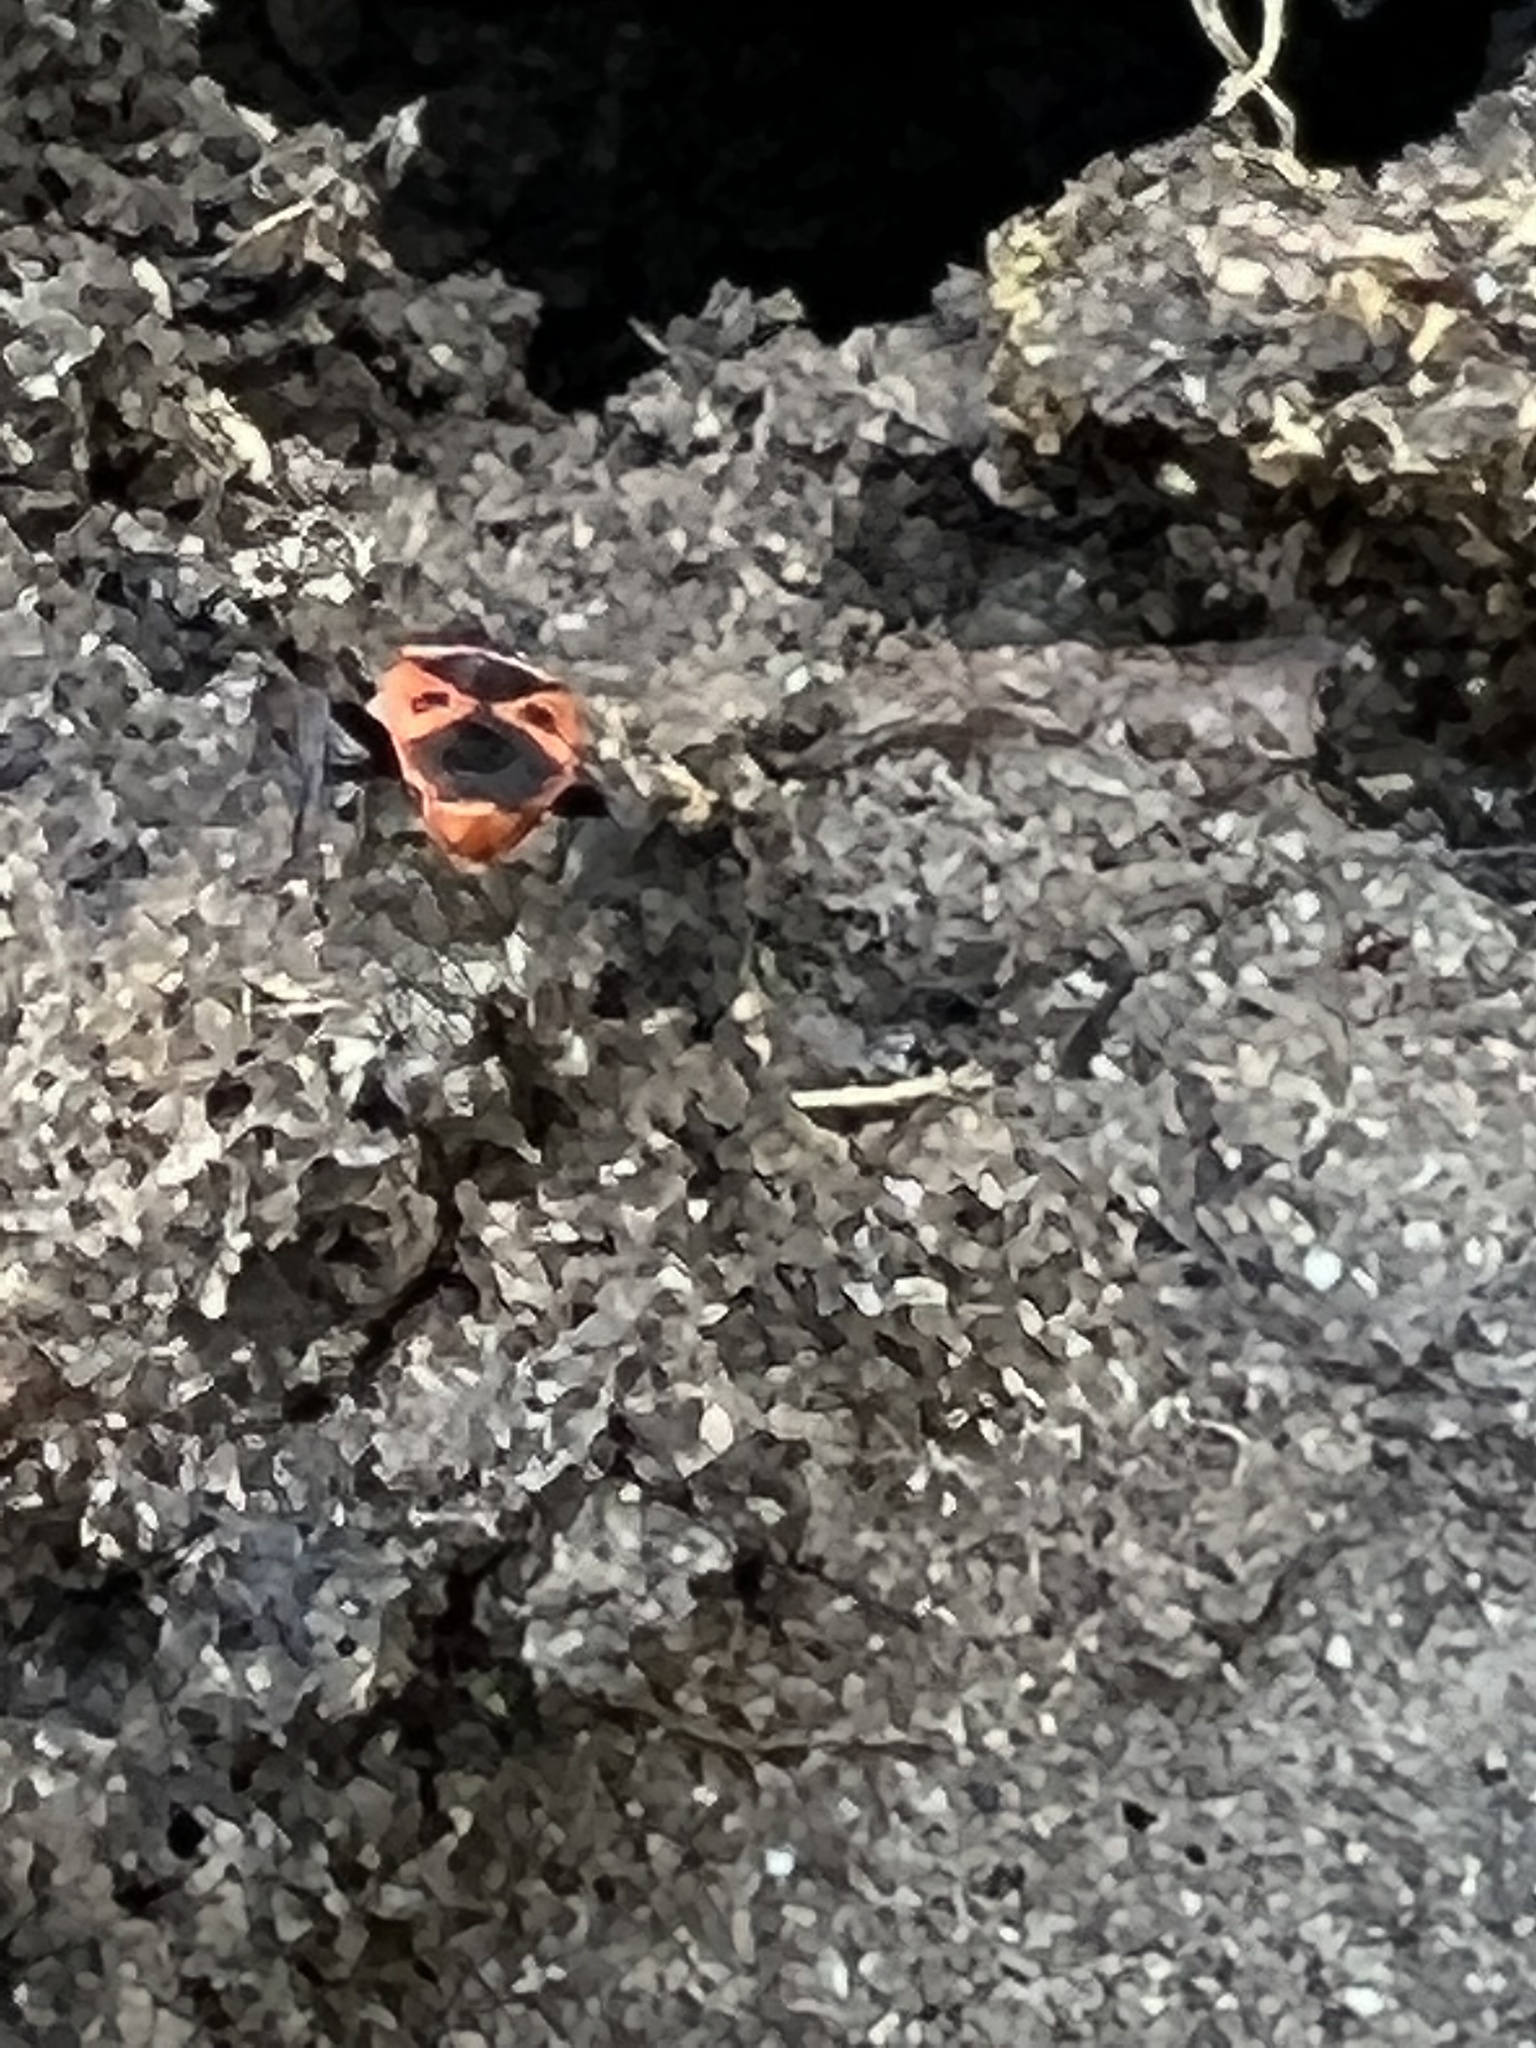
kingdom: Animalia
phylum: Arthropoda
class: Insecta
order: Hemiptera
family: Pyrrhocoridae
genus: Scantius
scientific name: Scantius aegyptius
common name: Red bug
